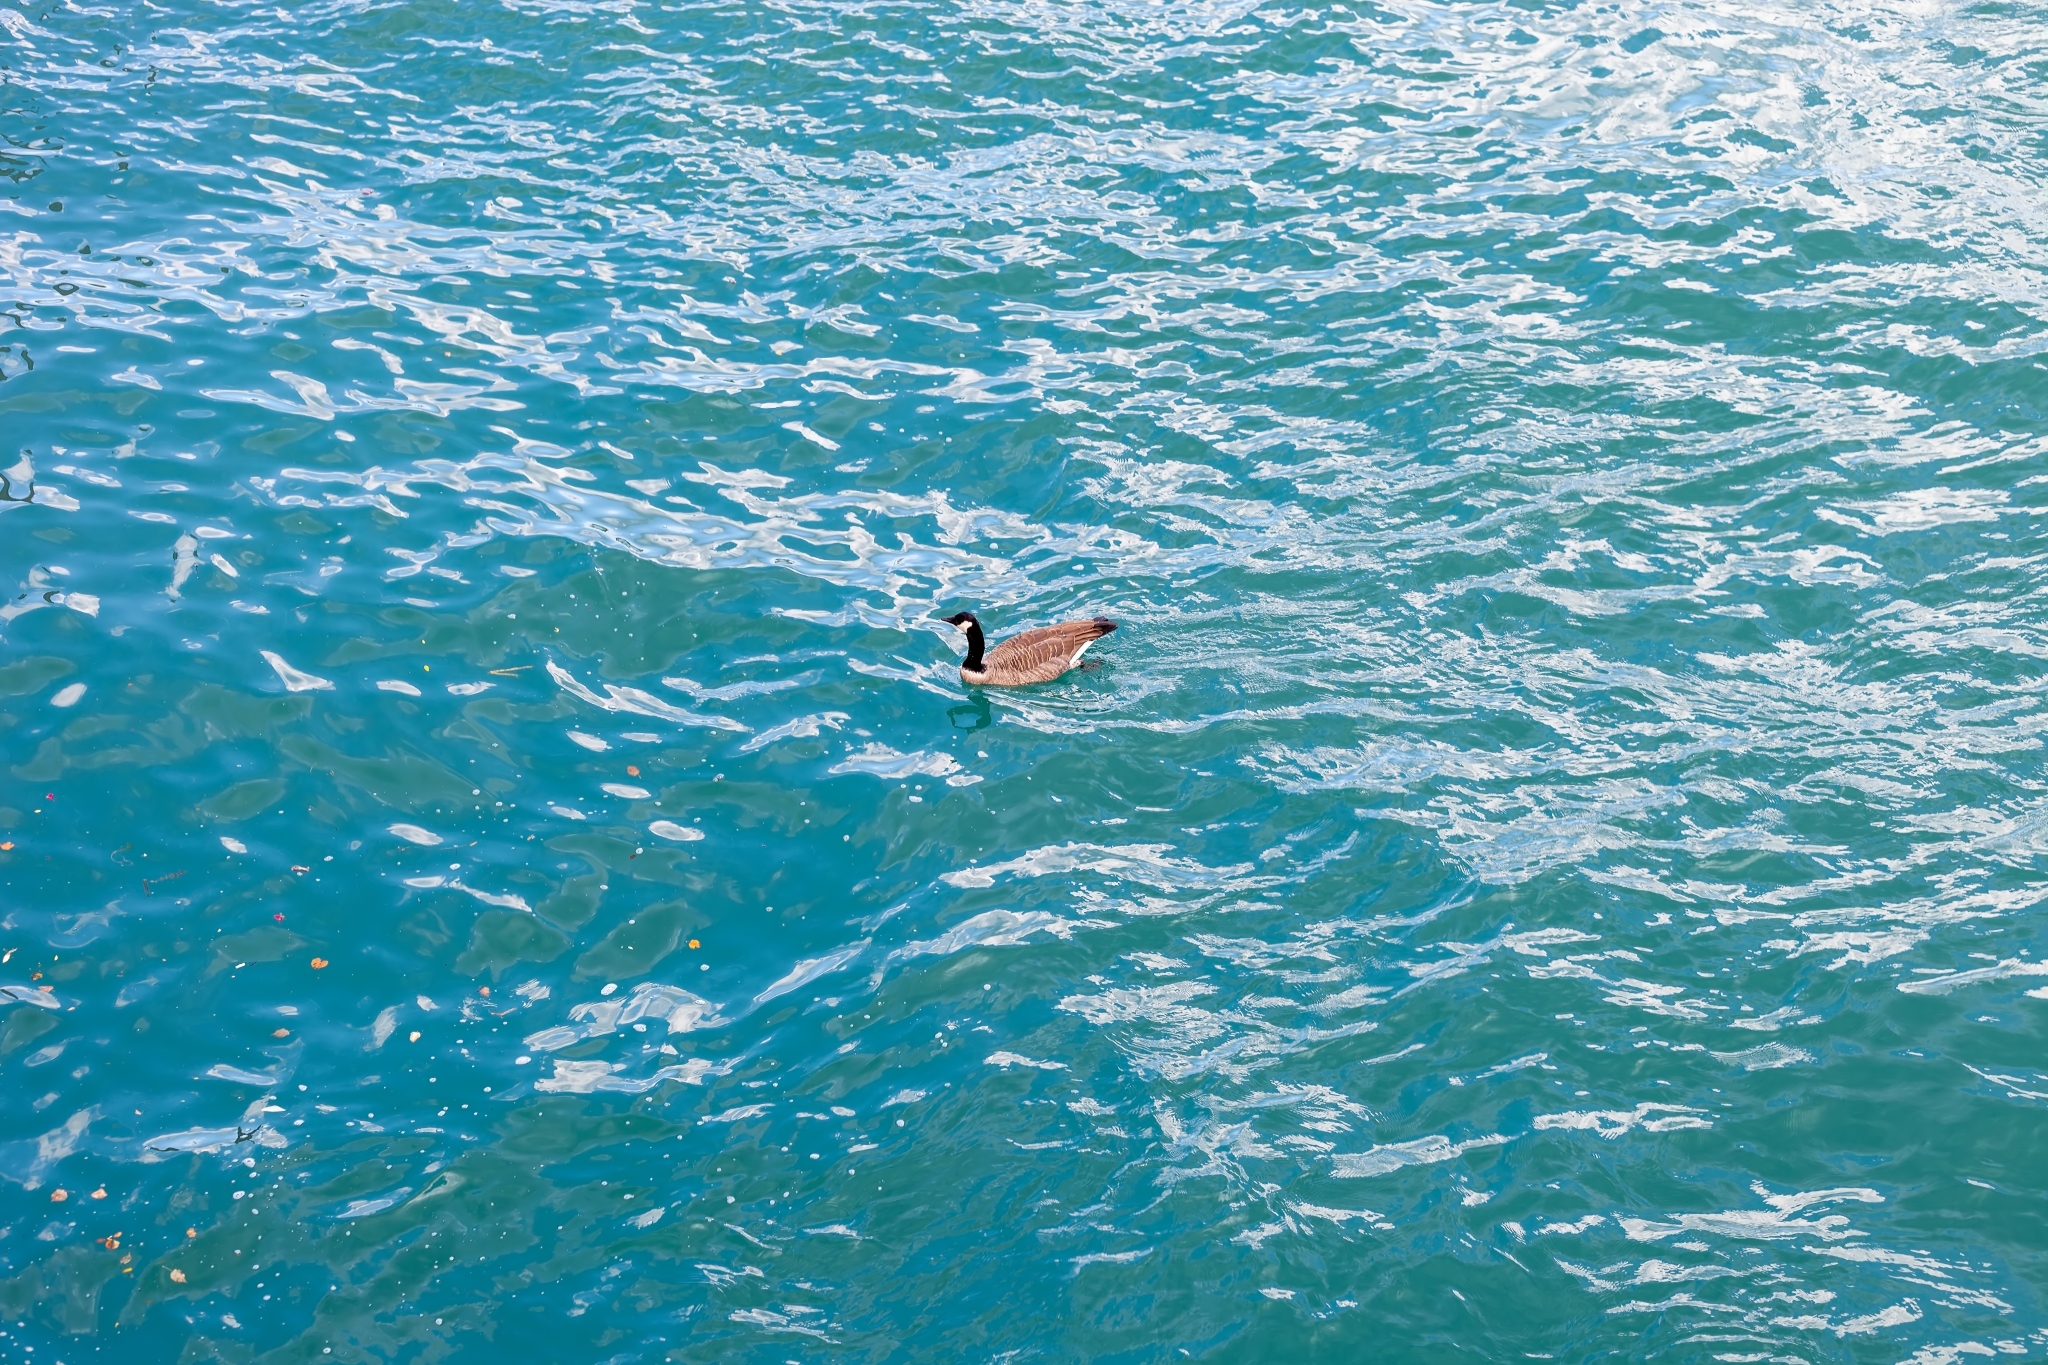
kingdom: Animalia
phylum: Chordata
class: Aves
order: Anseriformes
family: Anatidae
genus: Branta
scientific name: Branta canadensis
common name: Canada goose
